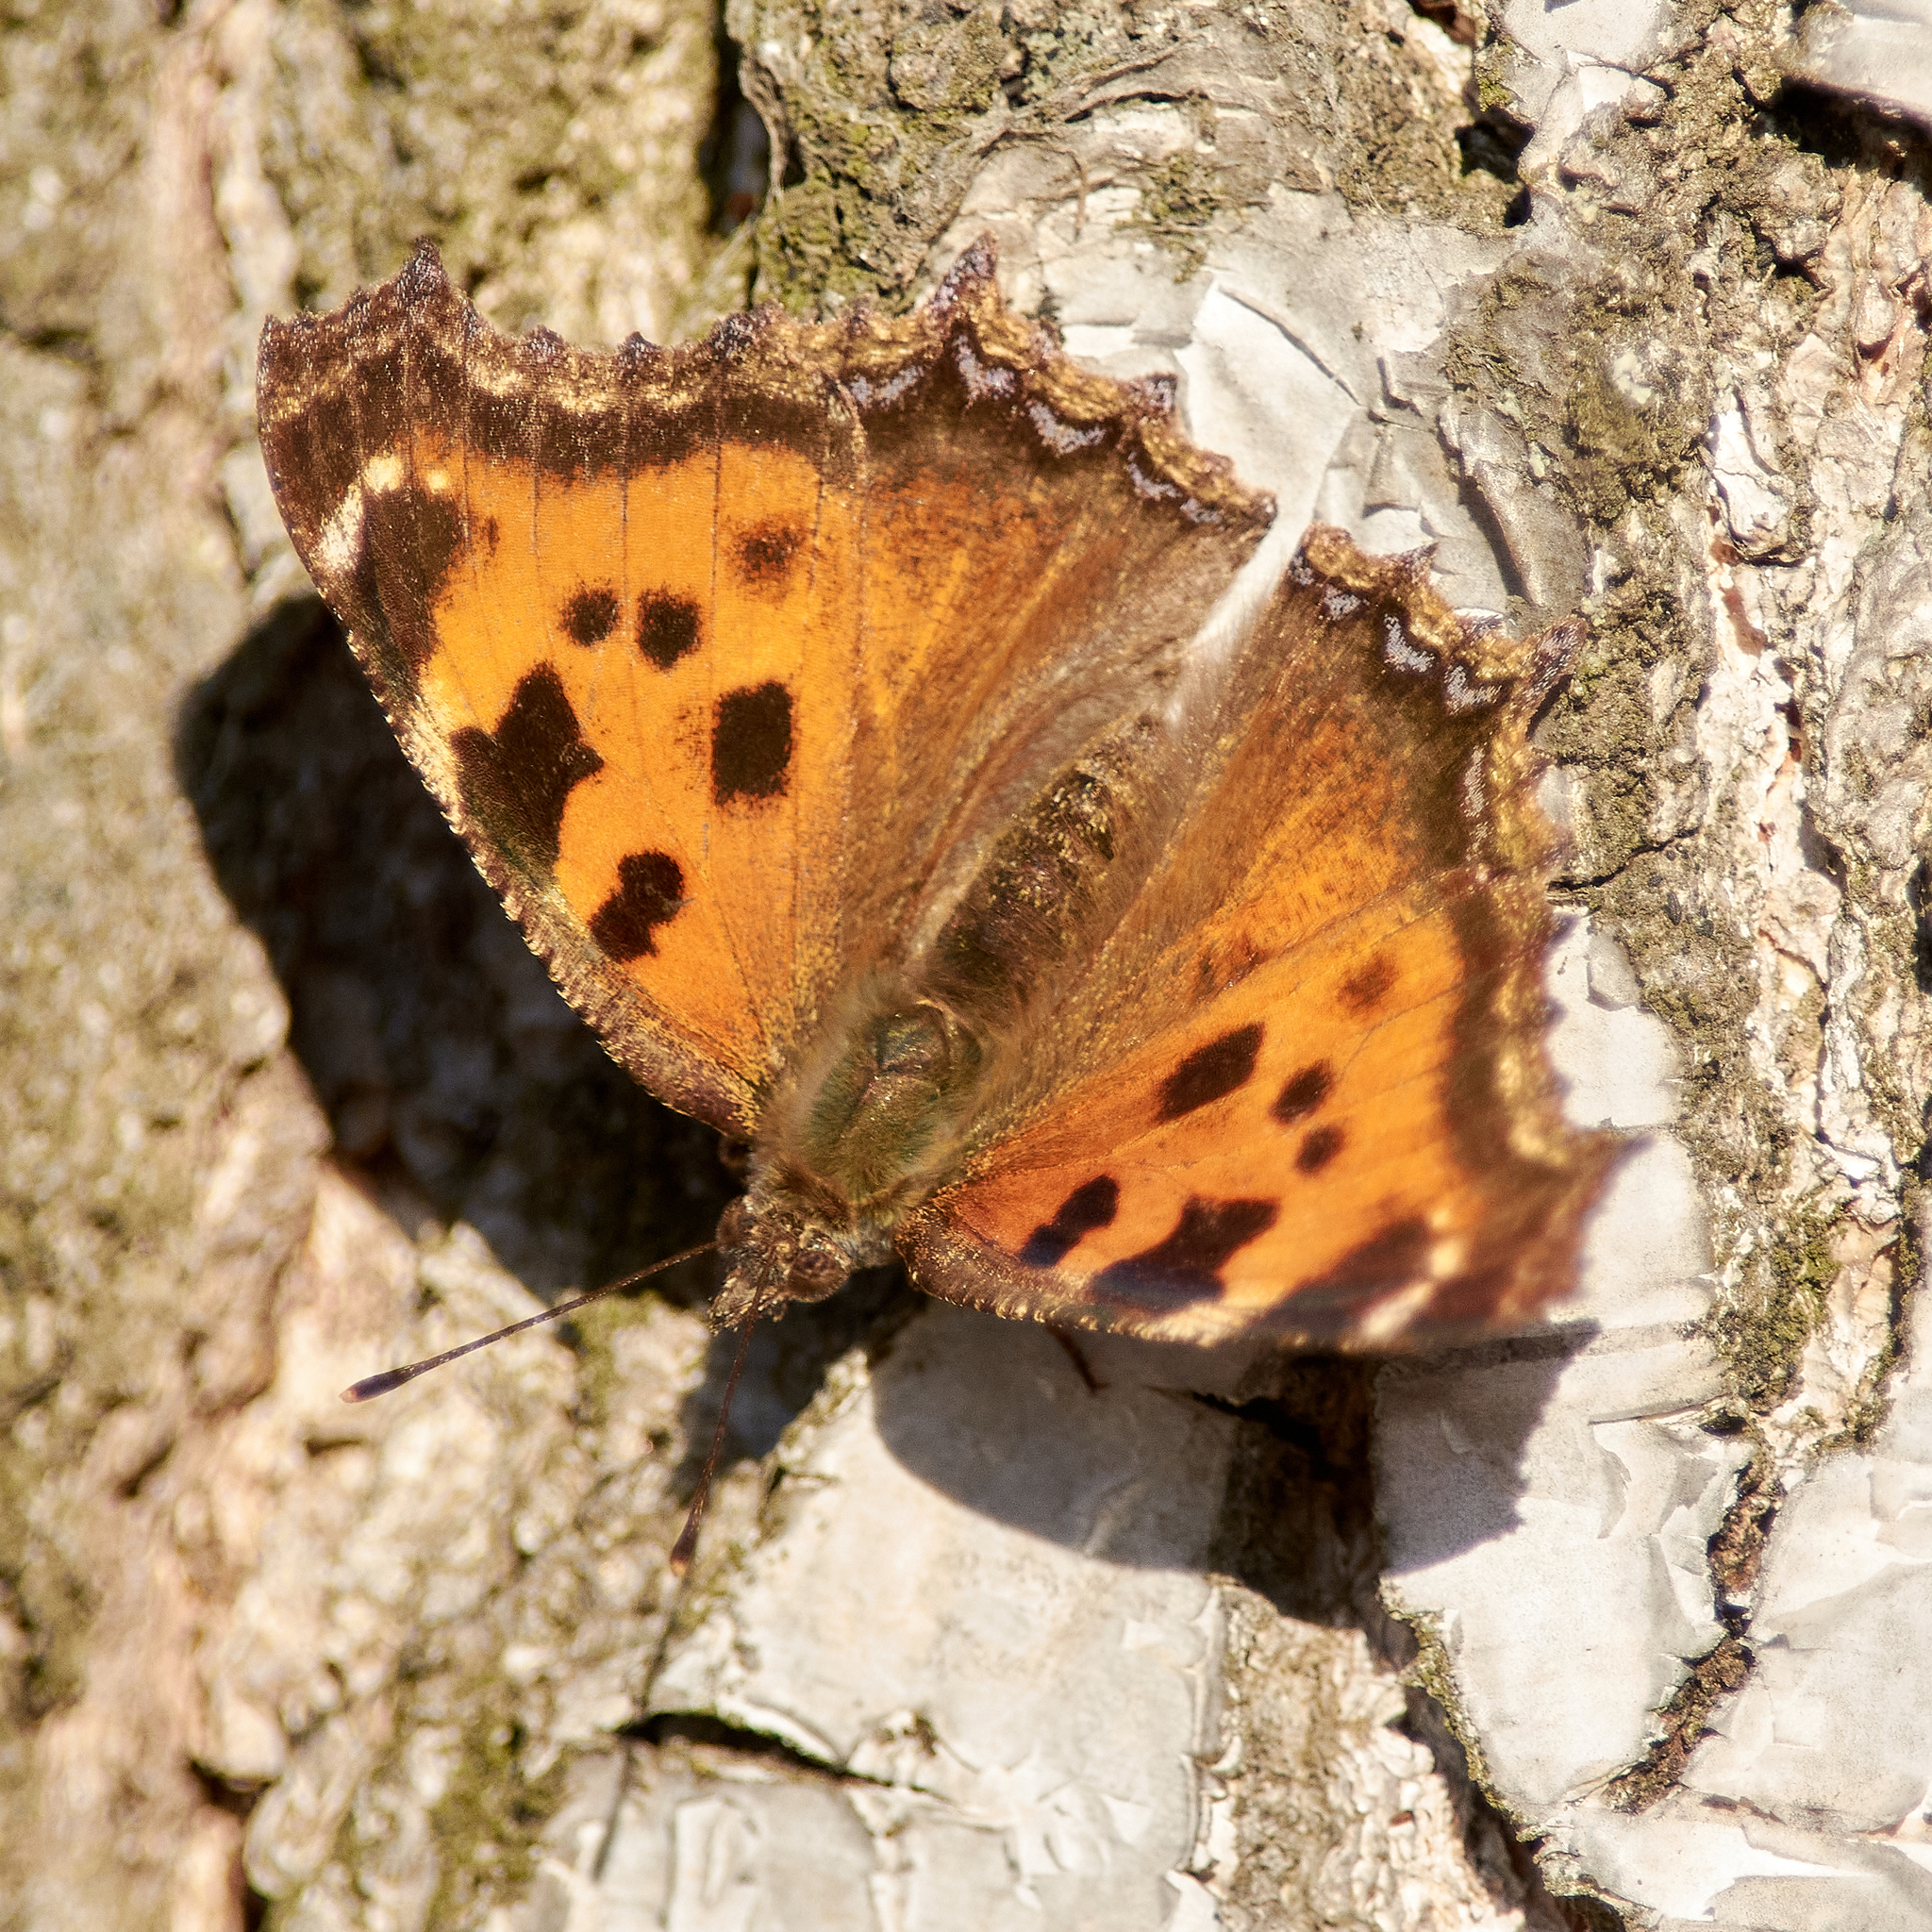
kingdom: Animalia
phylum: Arthropoda
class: Insecta
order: Lepidoptera
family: Nymphalidae
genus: Nymphalis
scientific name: Nymphalis xanthomelas
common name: Scarce tortoiseshell
